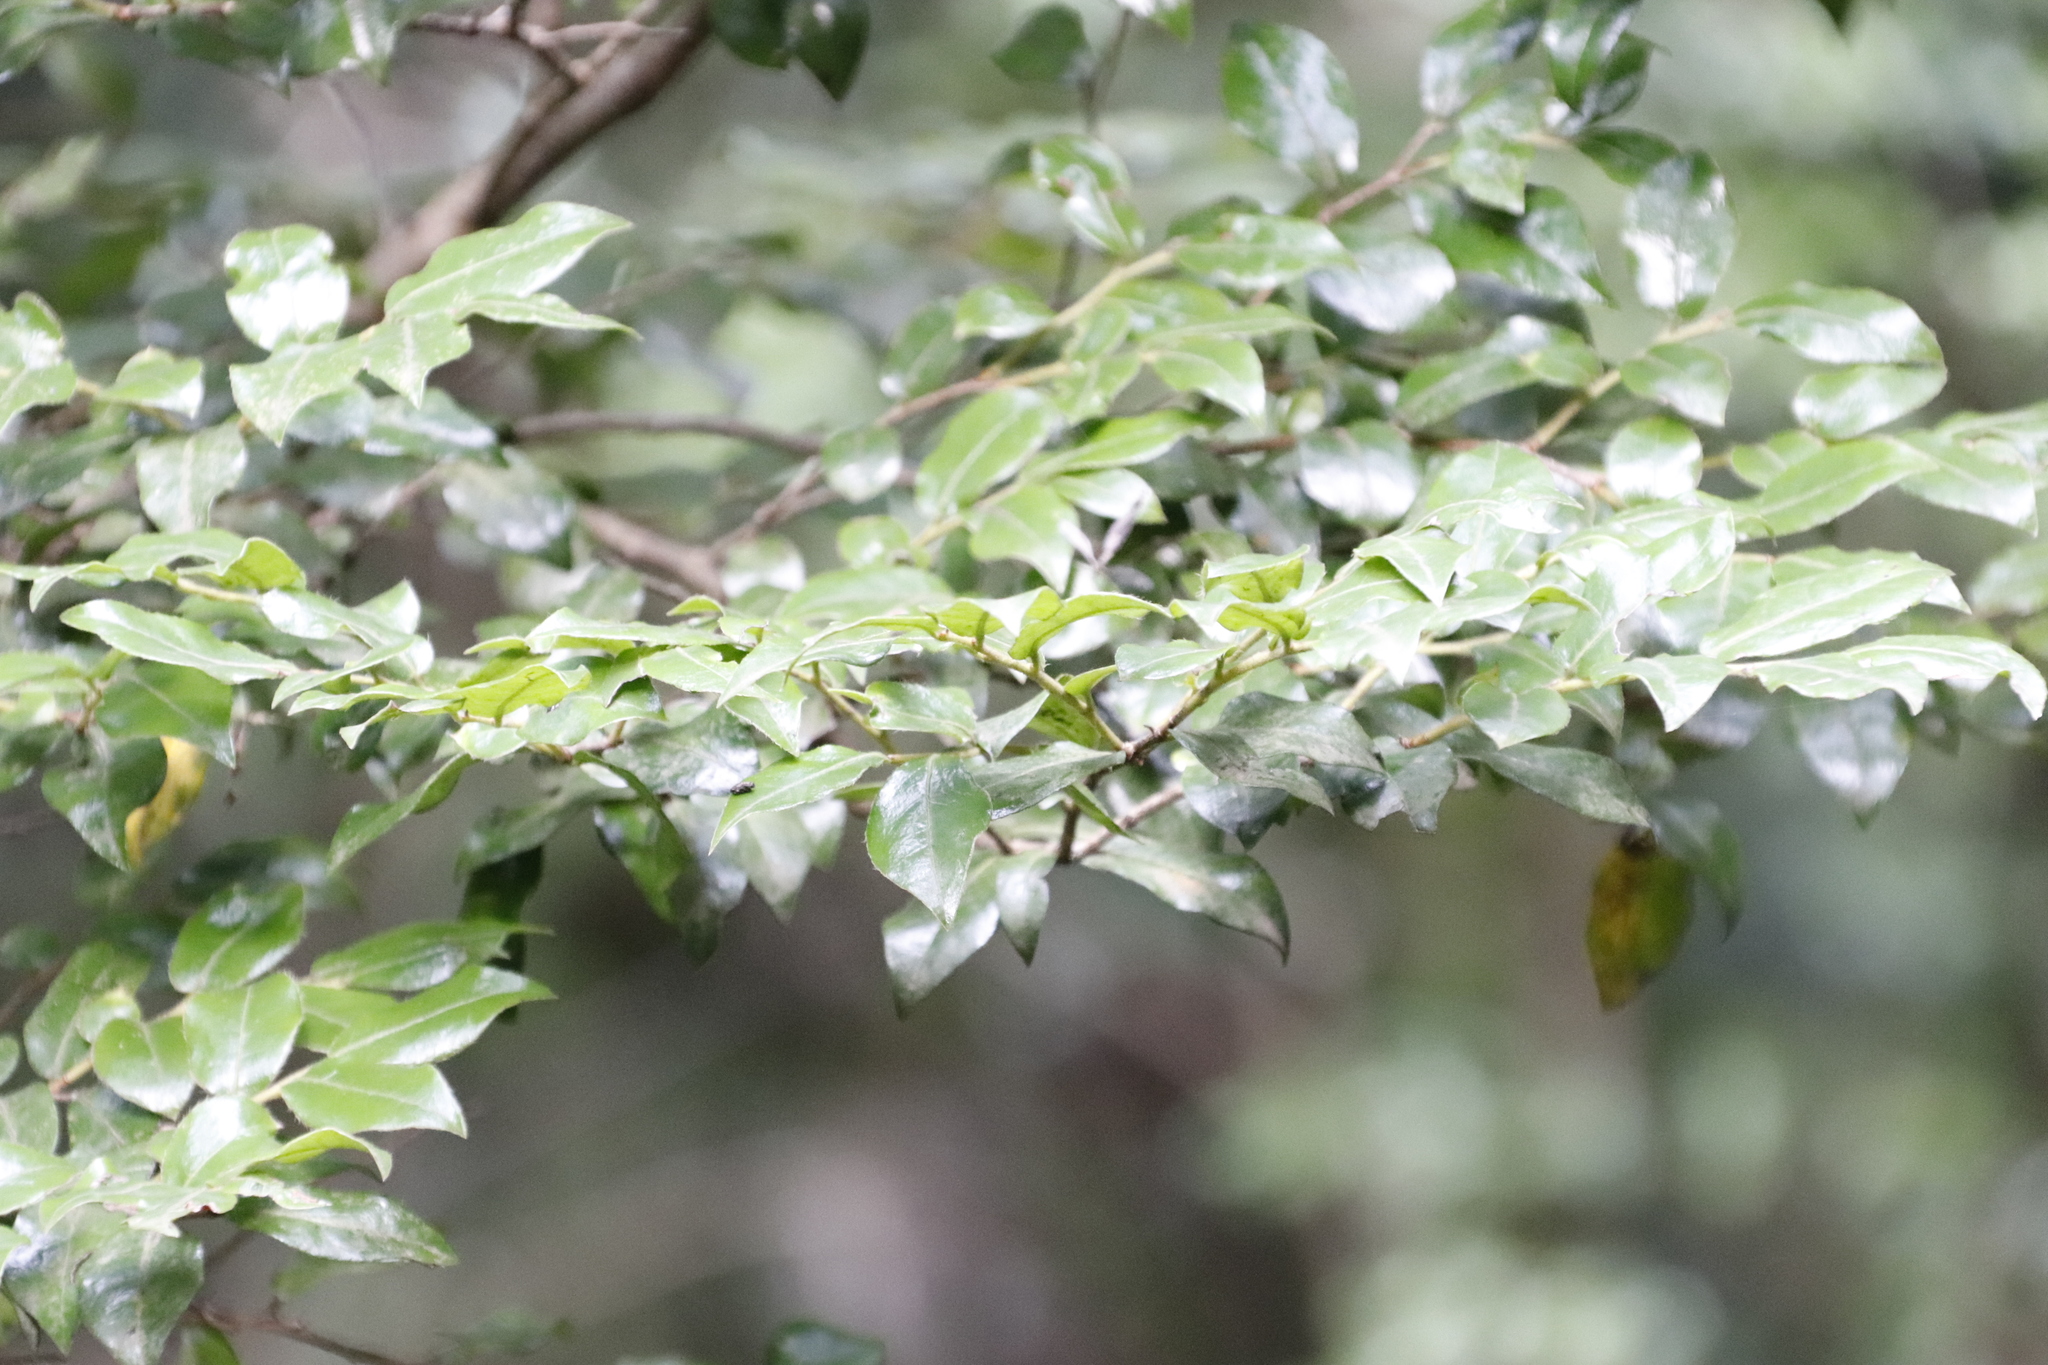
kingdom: Plantae
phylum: Tracheophyta
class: Magnoliopsida
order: Ericales
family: Ebenaceae
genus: Diospyros
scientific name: Diospyros whyteana
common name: Bladder-nut
